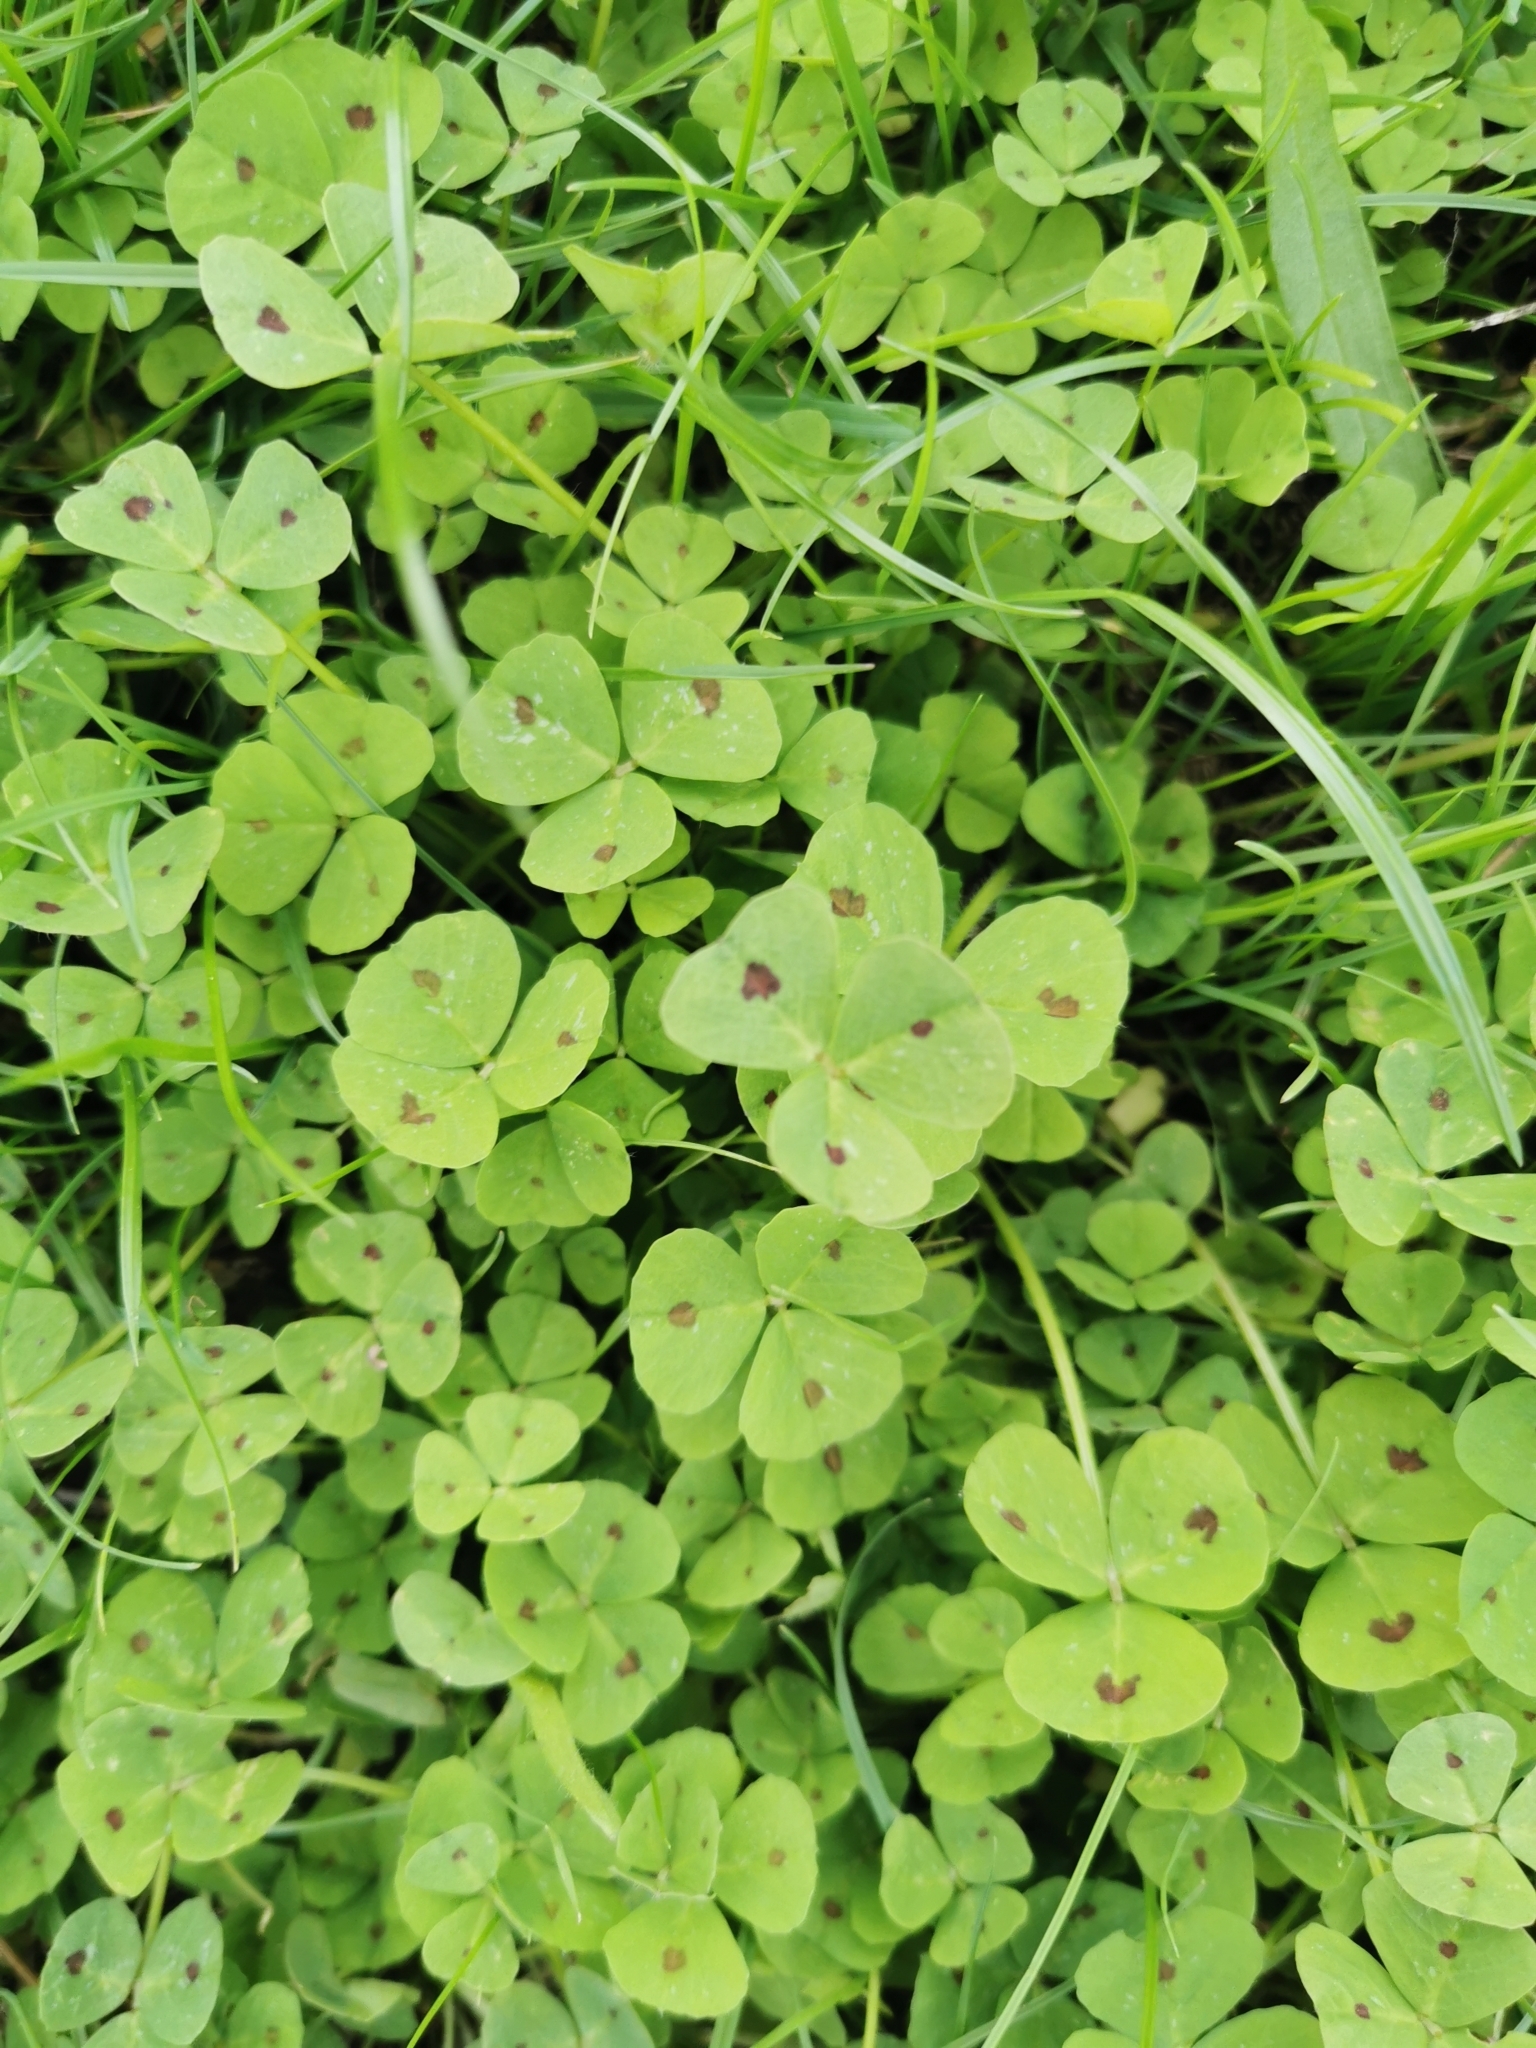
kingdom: Plantae
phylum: Tracheophyta
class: Magnoliopsida
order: Fabales
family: Fabaceae
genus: Medicago
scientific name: Medicago arabica
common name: Spotted medick
